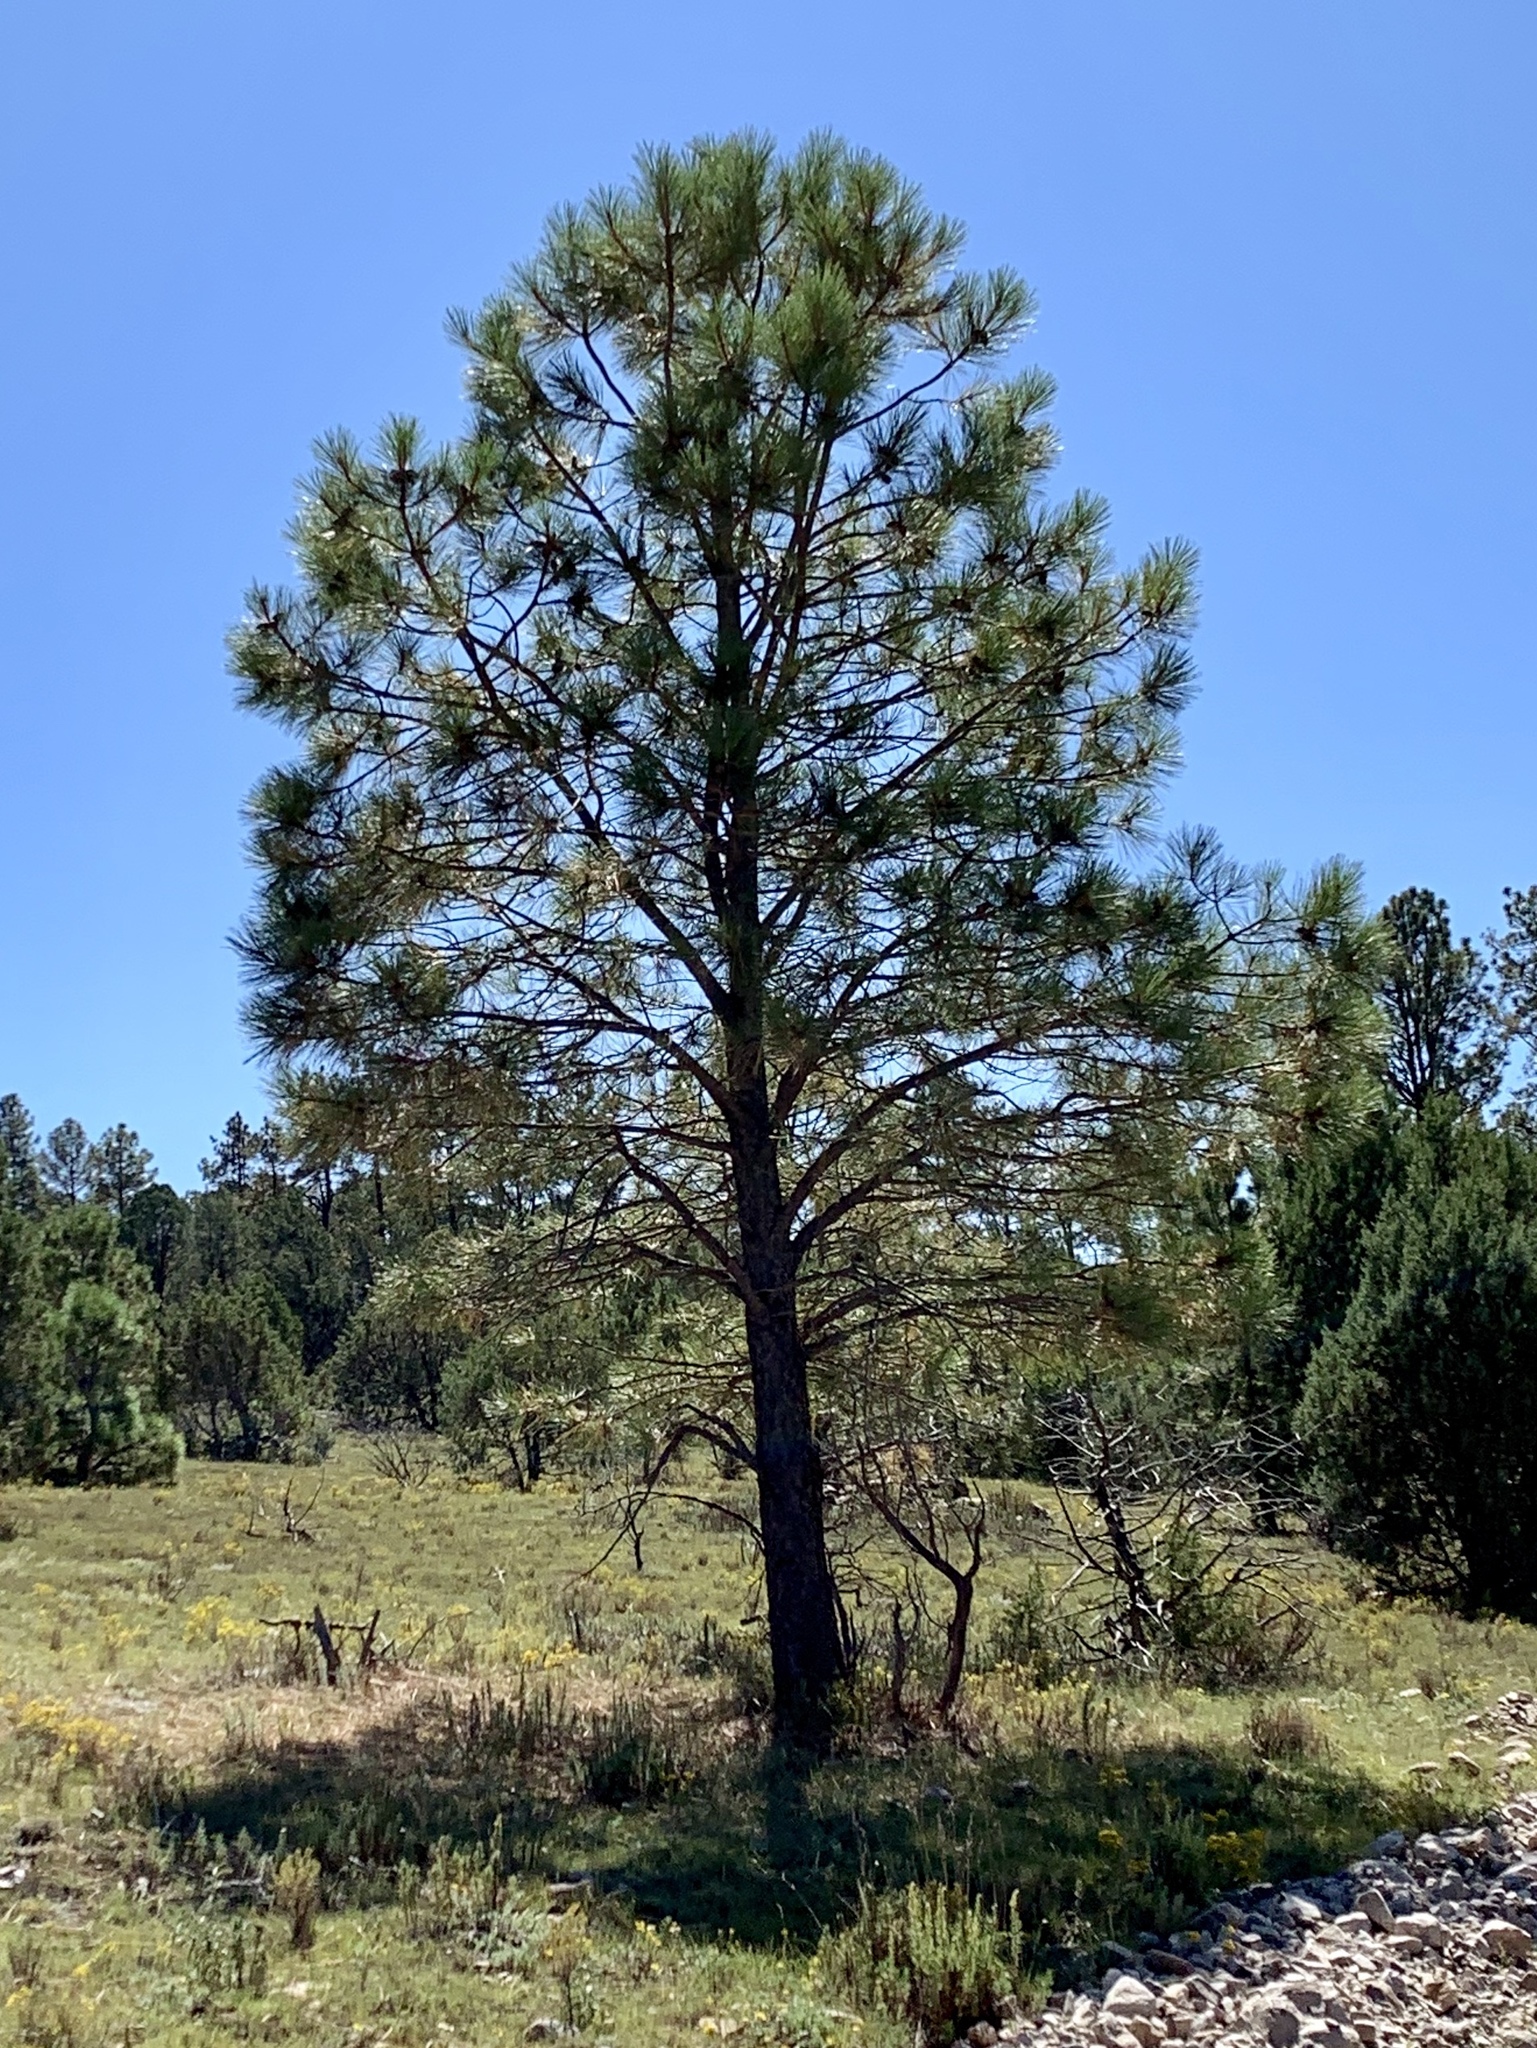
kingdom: Plantae
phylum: Tracheophyta
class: Pinopsida
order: Pinales
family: Pinaceae
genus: Pinus
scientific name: Pinus ponderosa
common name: Western yellow-pine
